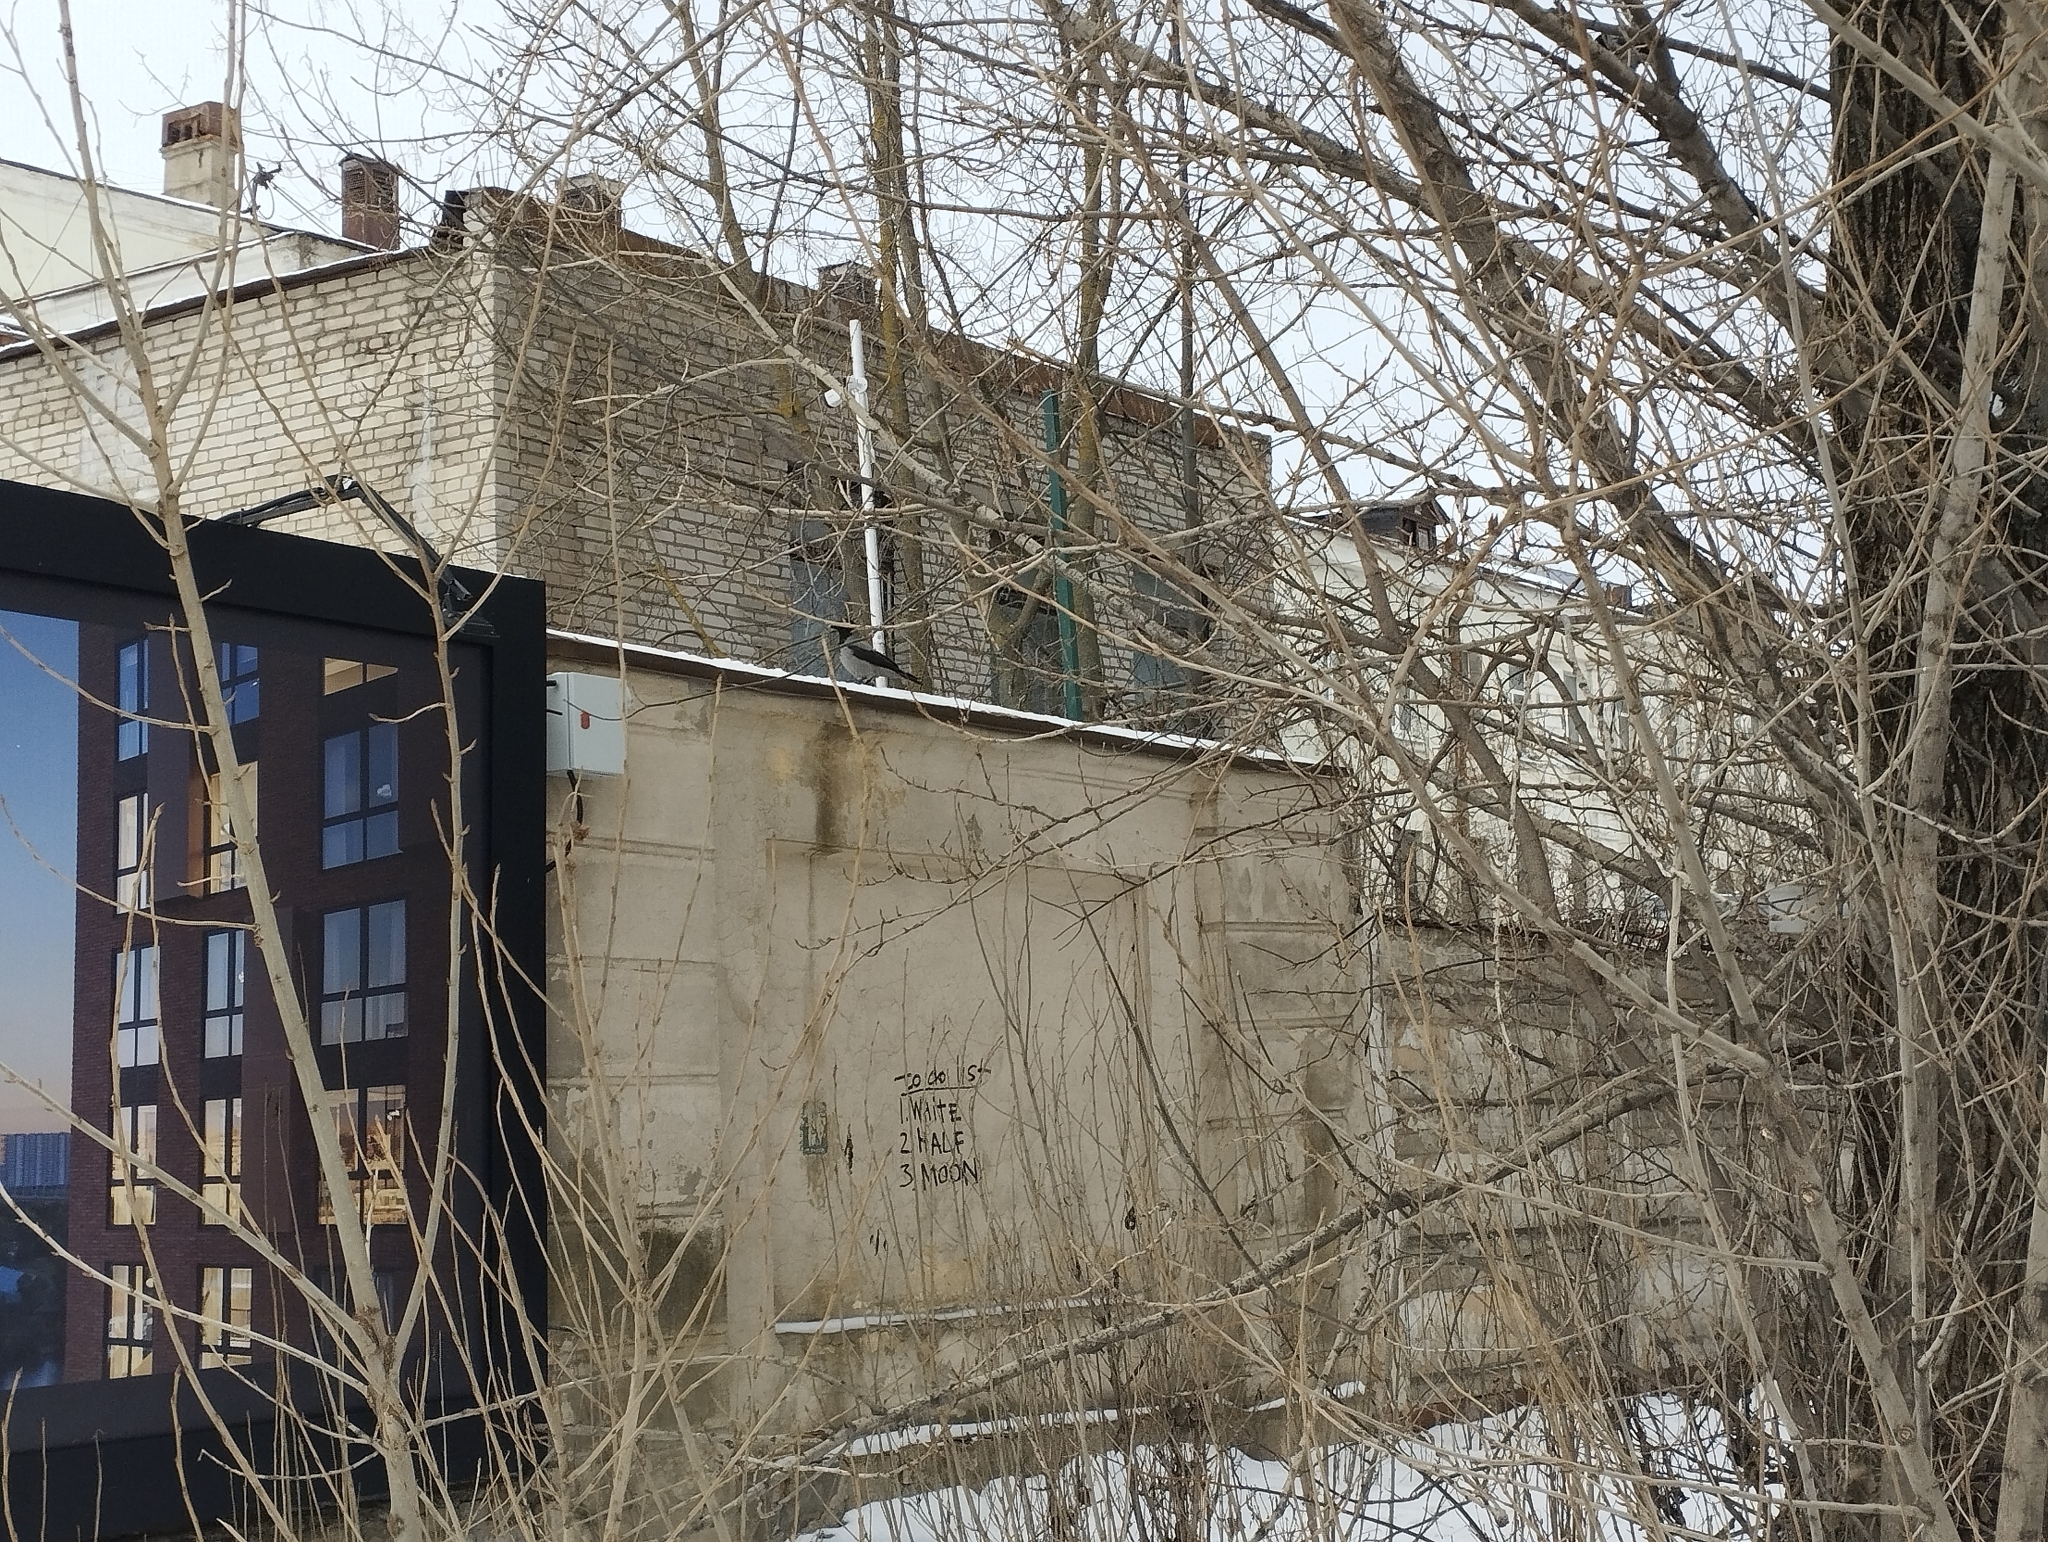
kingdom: Animalia
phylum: Chordata
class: Aves
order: Passeriformes
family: Corvidae
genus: Corvus
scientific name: Corvus cornix
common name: Hooded crow
